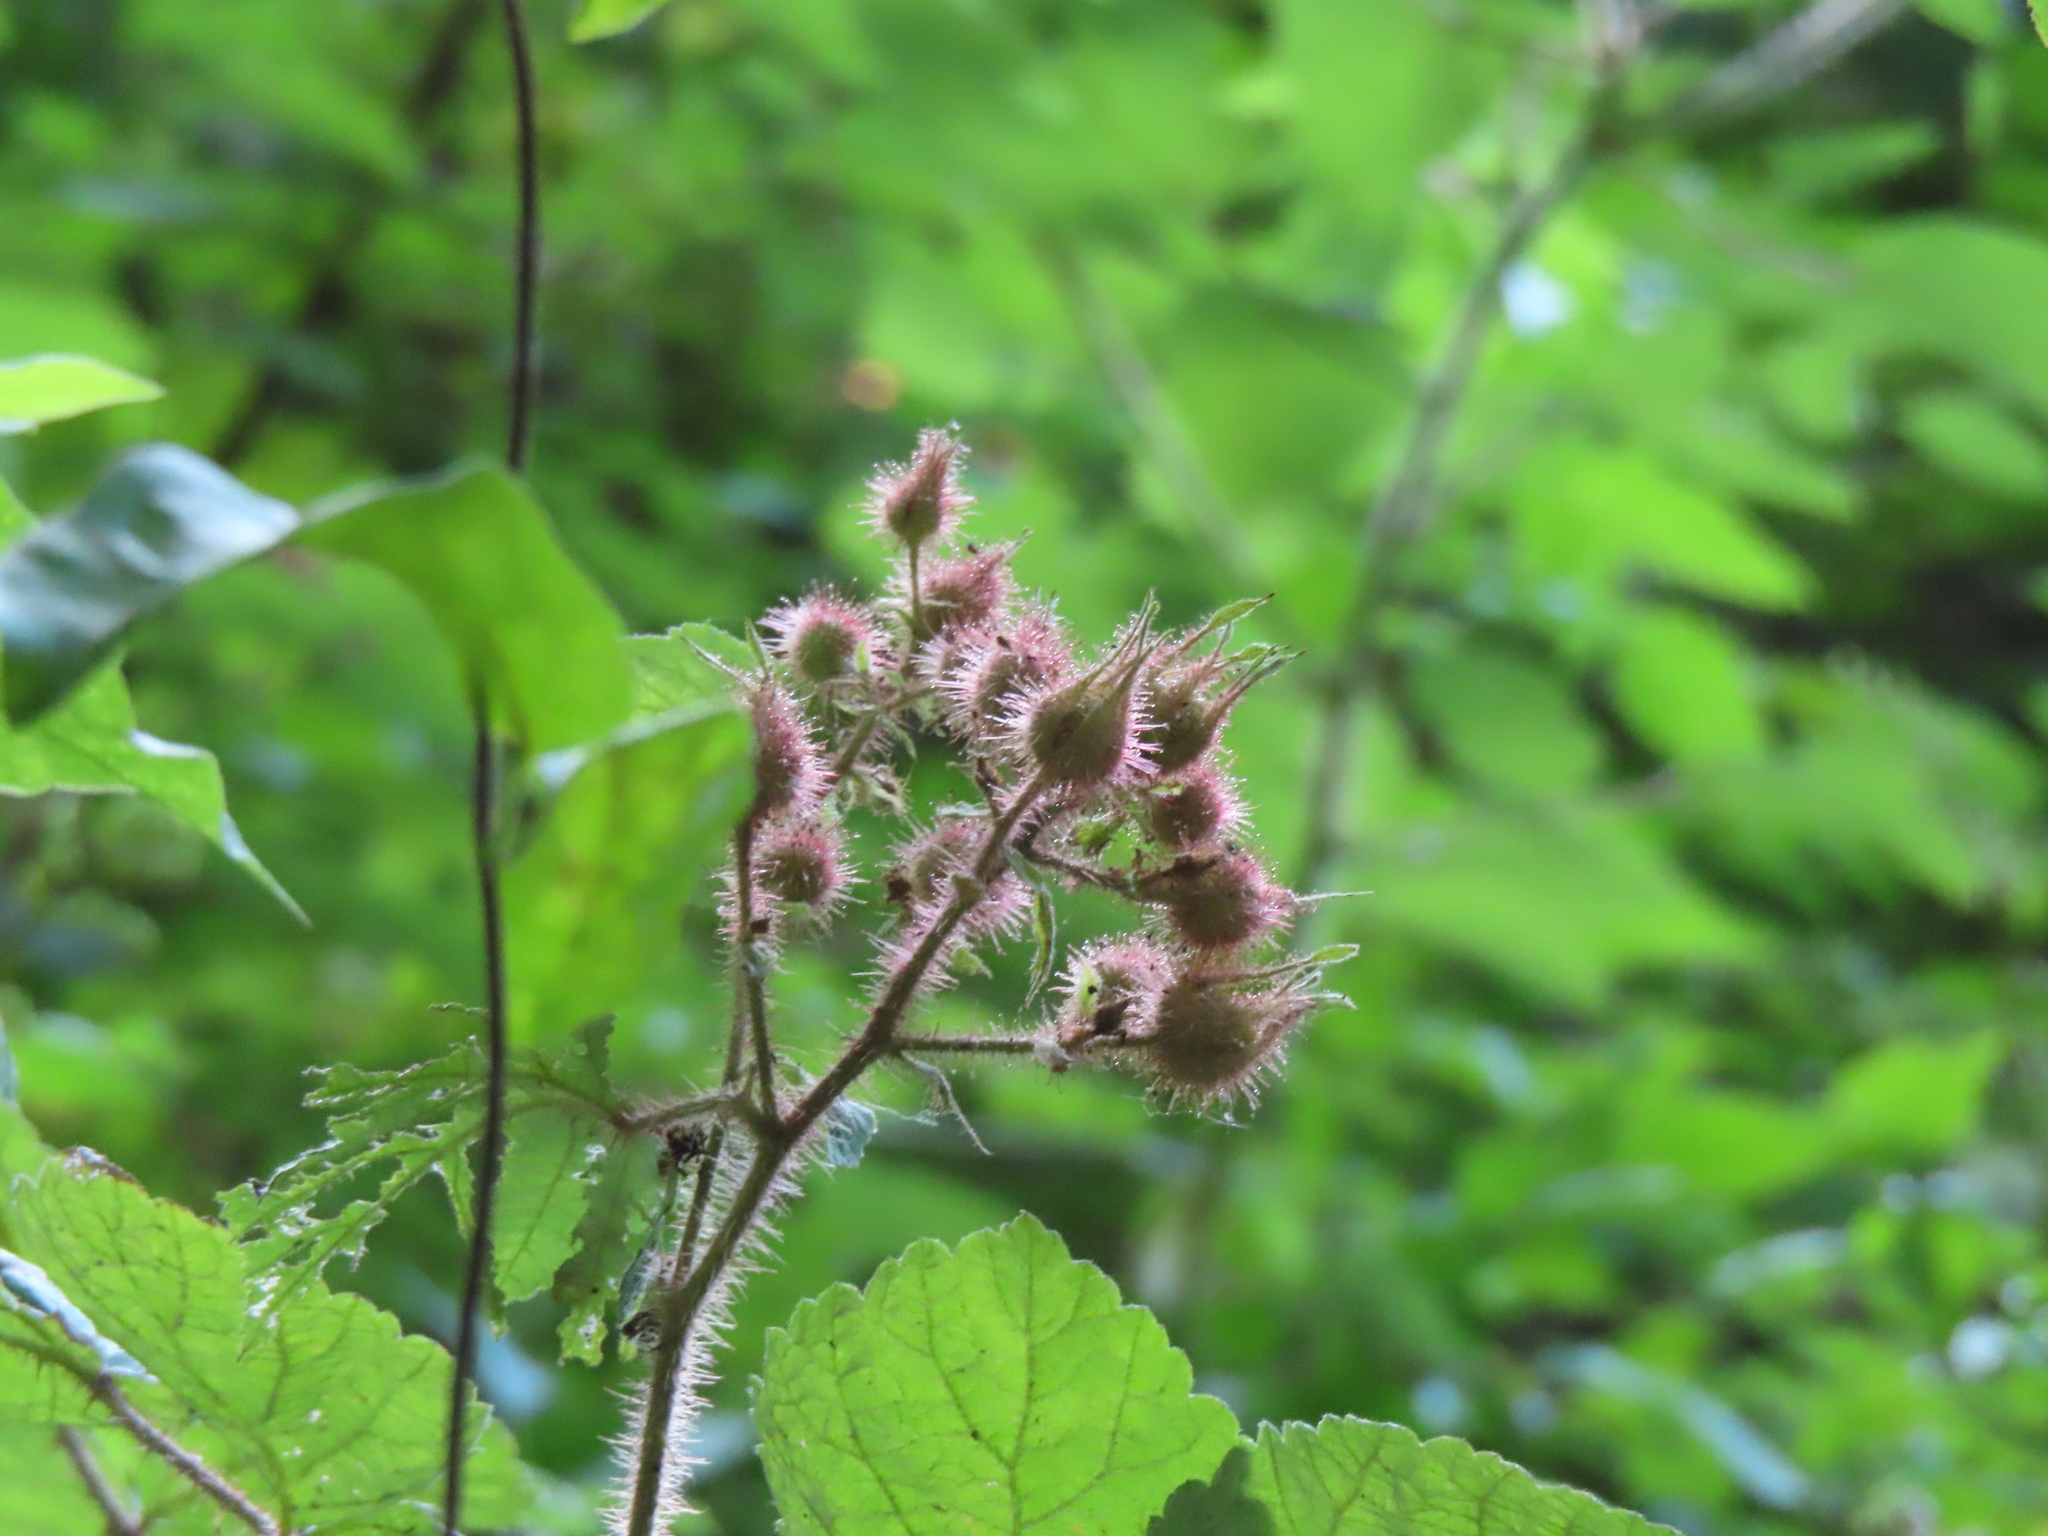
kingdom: Plantae
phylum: Tracheophyta
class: Magnoliopsida
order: Rosales
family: Rosaceae
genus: Rubus
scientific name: Rubus phoenicolasius
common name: Japanese wineberry
